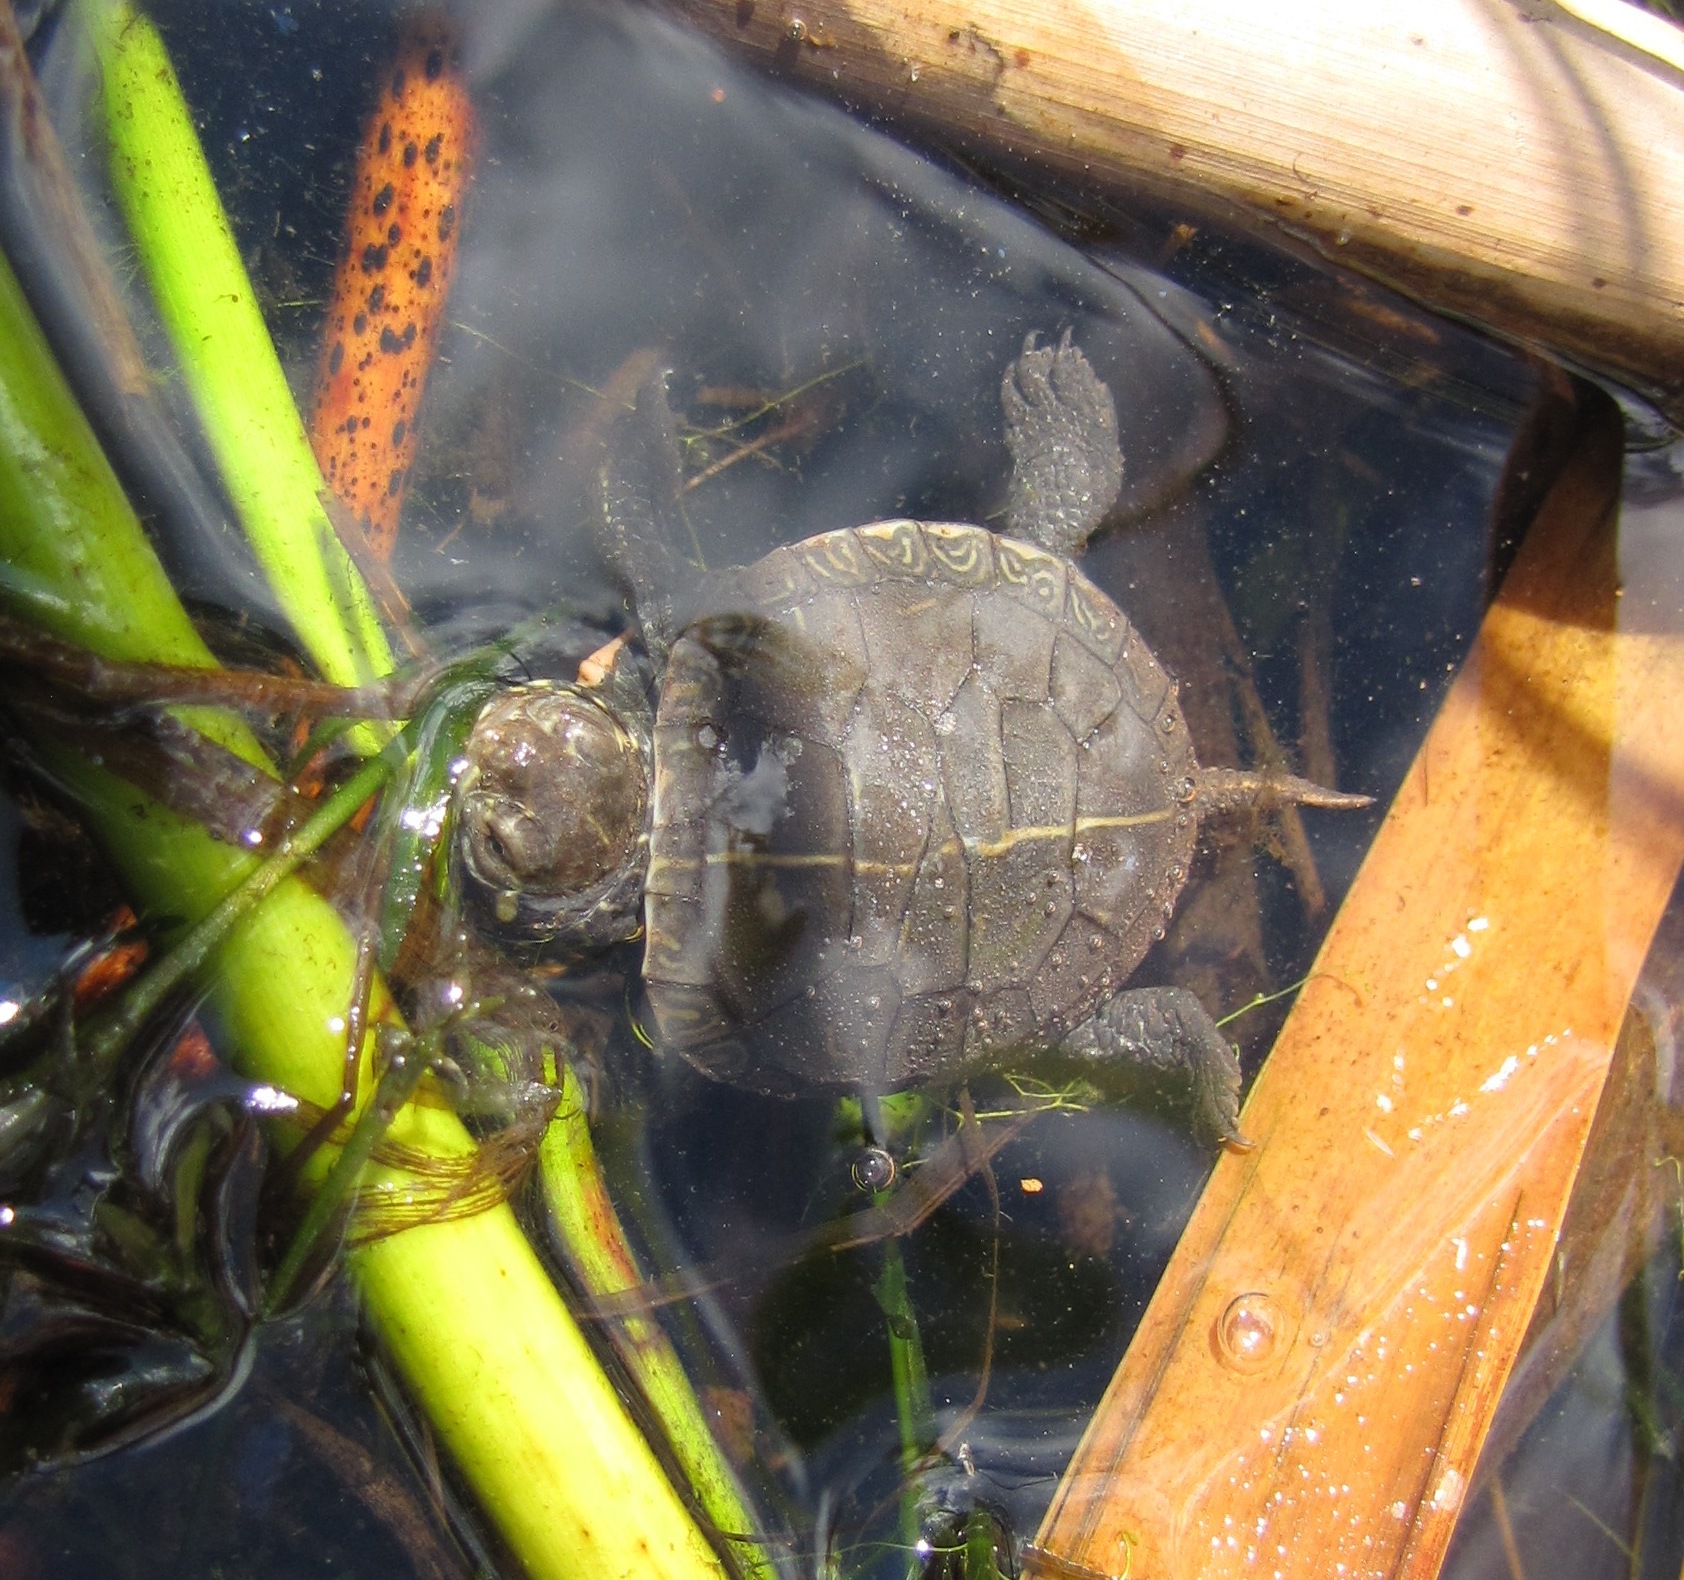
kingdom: Animalia
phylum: Chordata
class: Testudines
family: Emydidae
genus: Chrysemys
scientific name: Chrysemys picta
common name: Painted turtle
